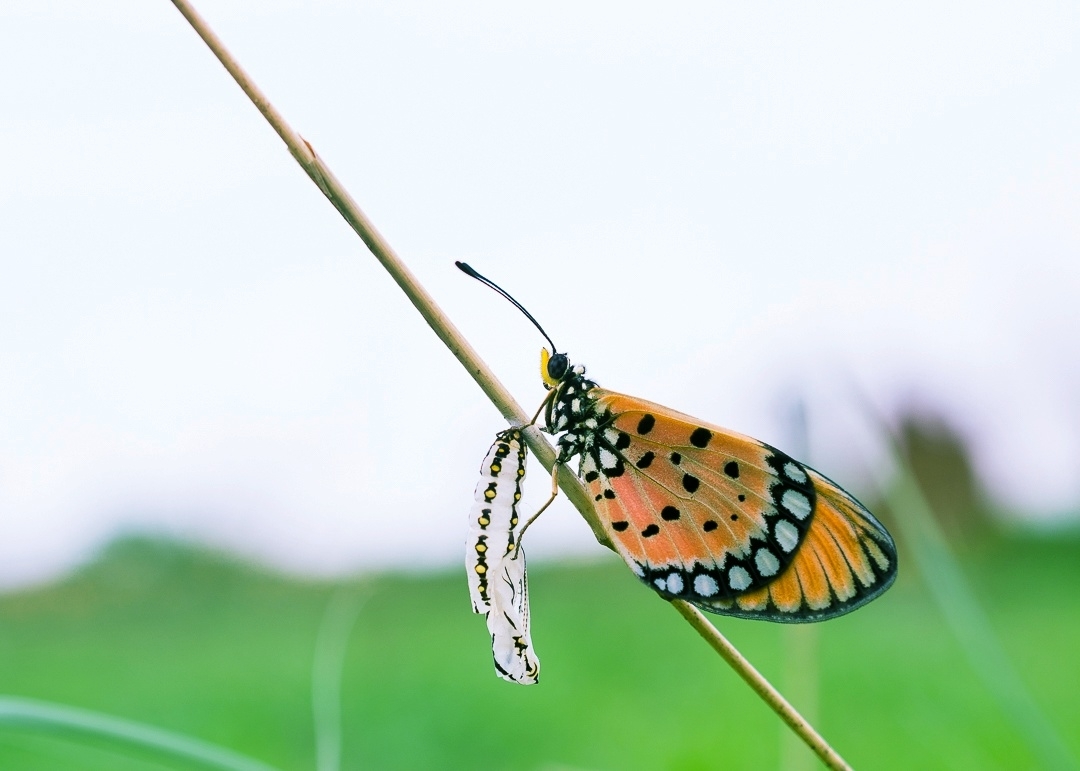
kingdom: Animalia
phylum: Arthropoda
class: Insecta
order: Lepidoptera
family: Nymphalidae
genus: Acraea
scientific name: Acraea terpsicore
